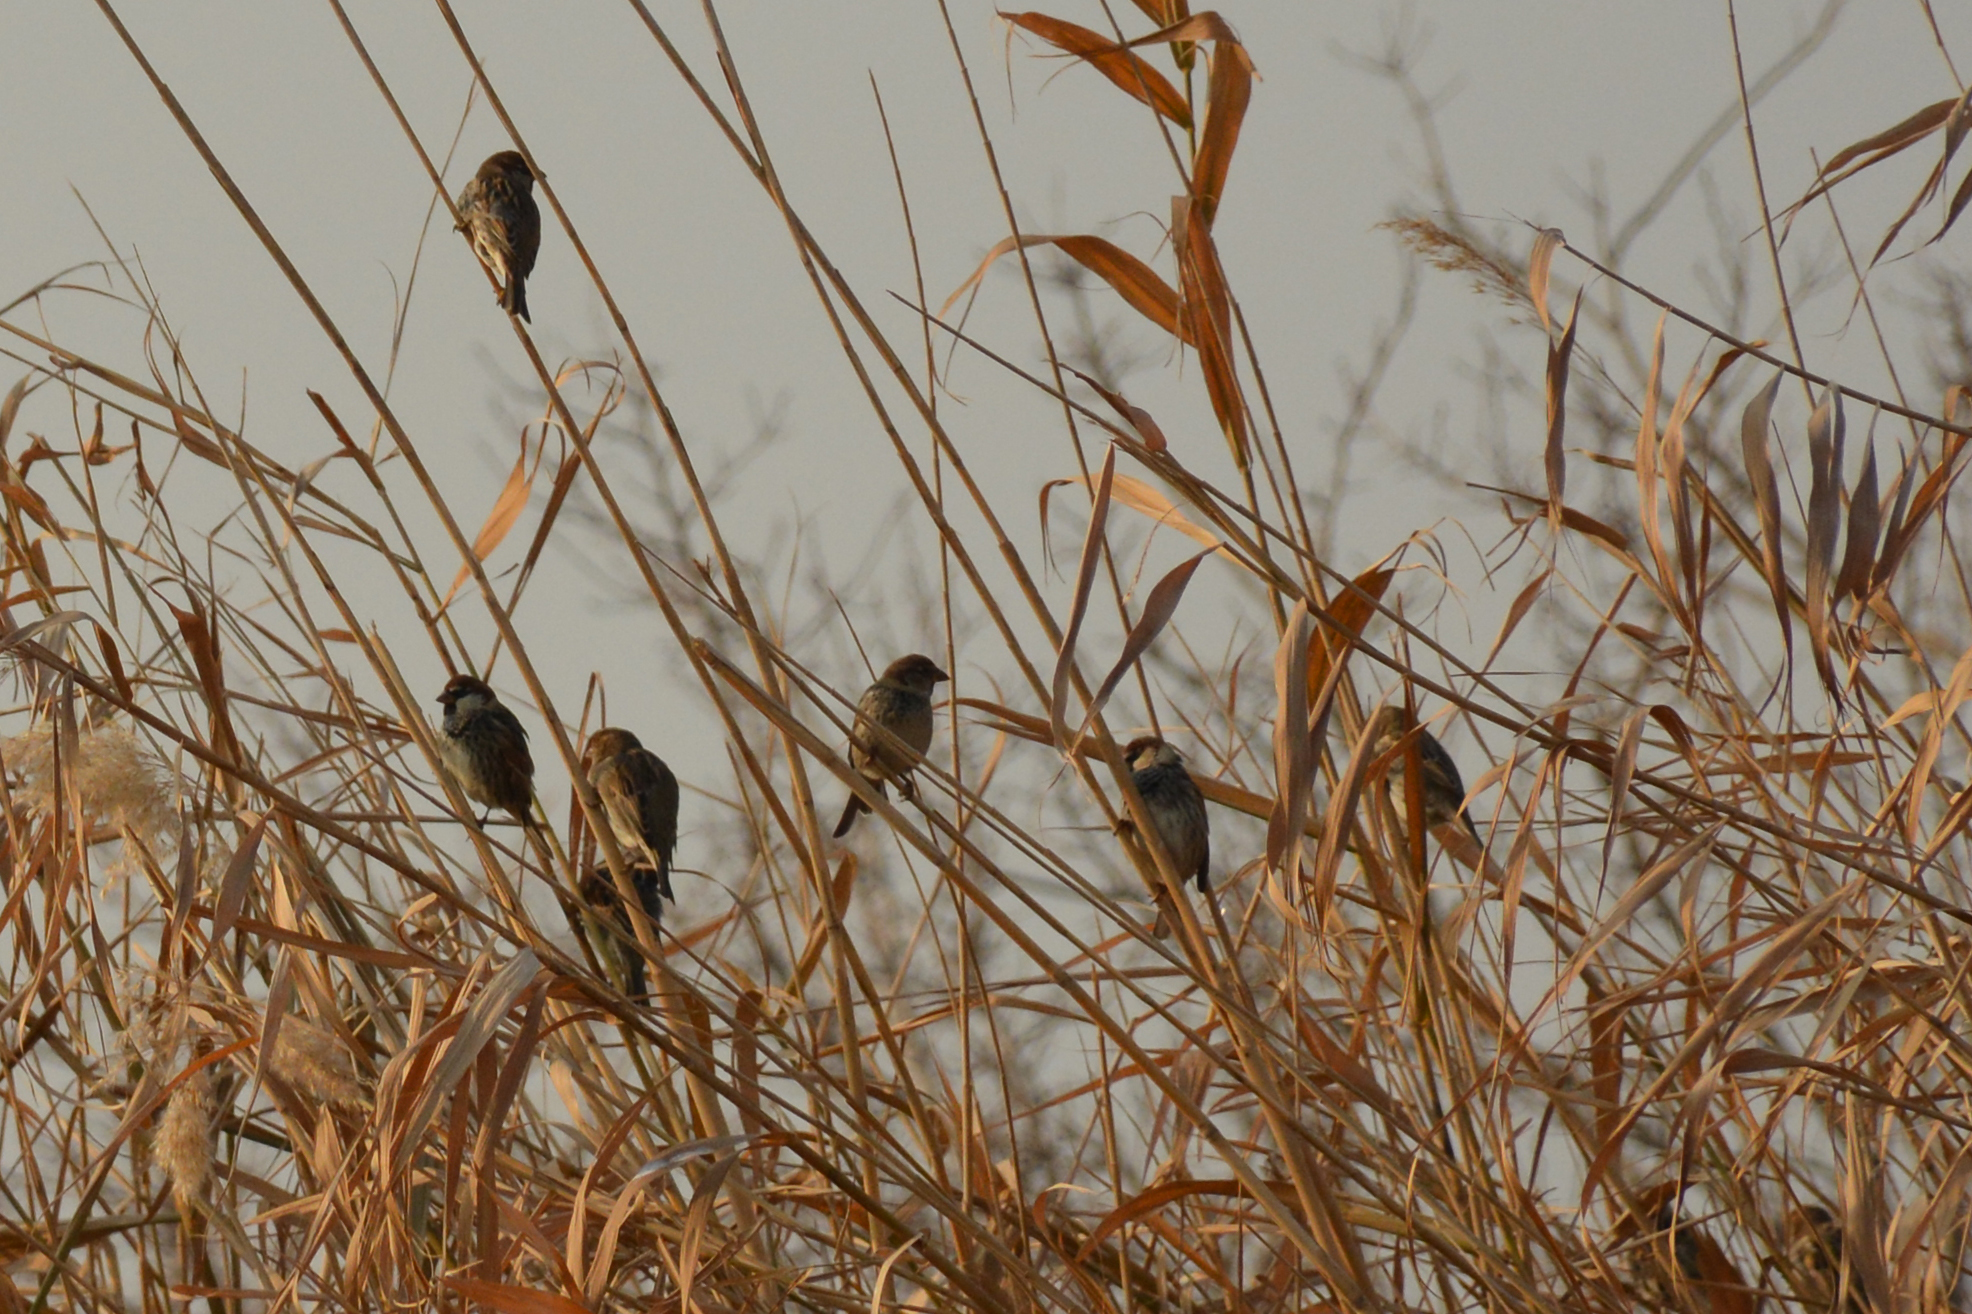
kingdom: Animalia
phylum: Chordata
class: Aves
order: Passeriformes
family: Passeridae
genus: Passer
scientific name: Passer hispaniolensis
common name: Spanish sparrow
